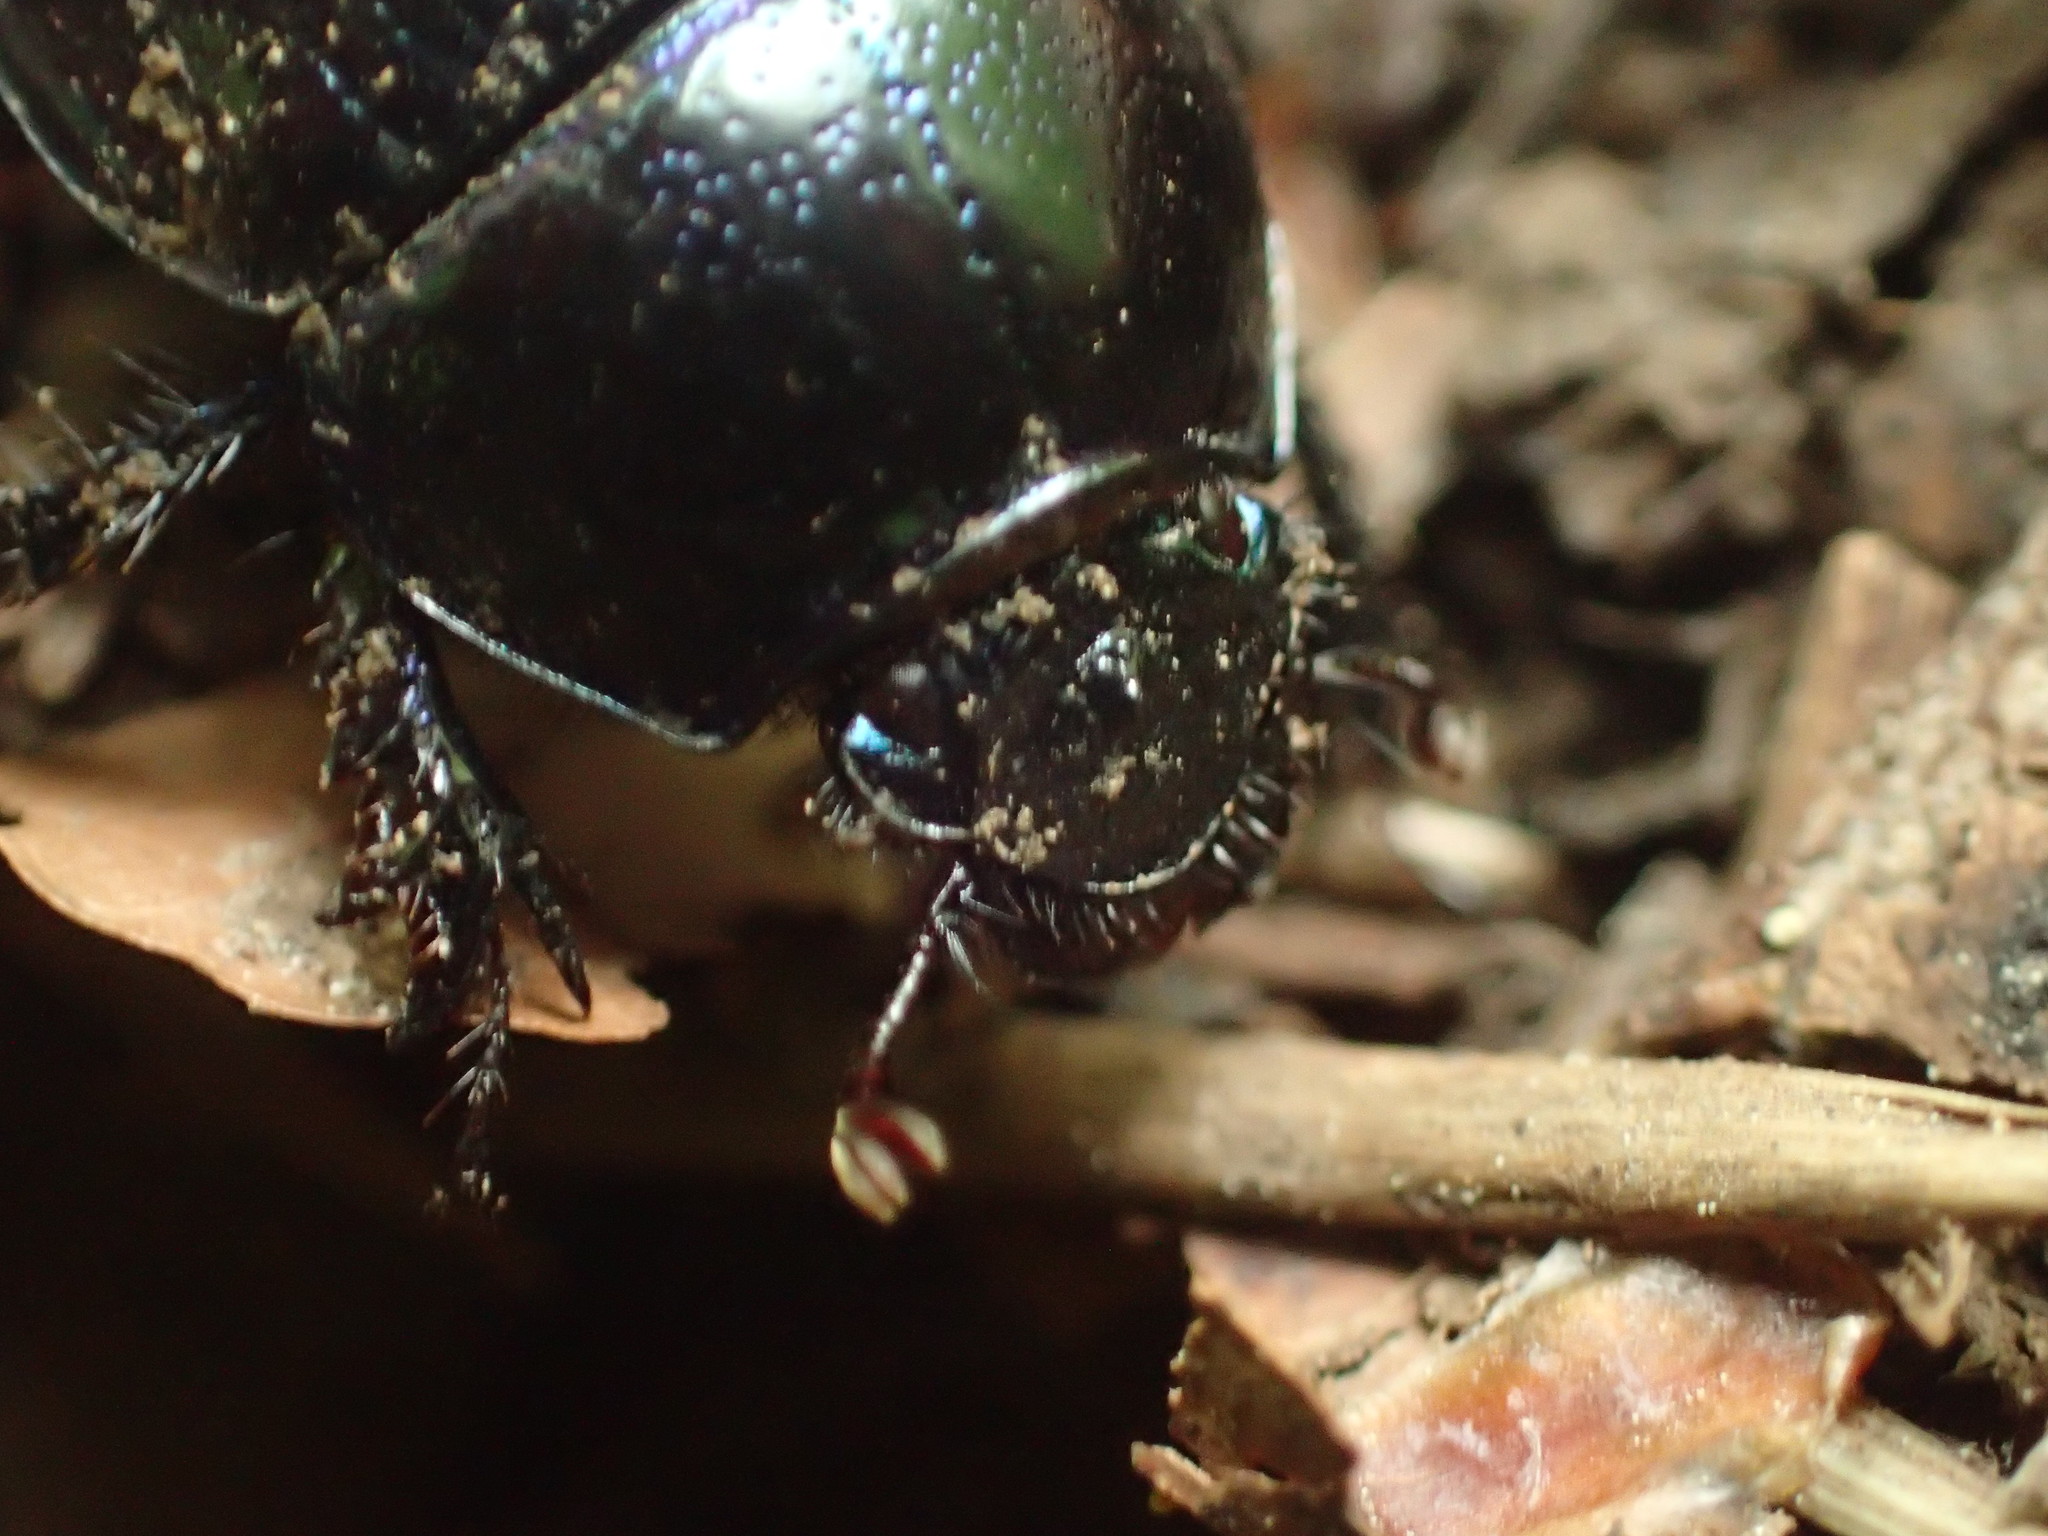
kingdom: Animalia
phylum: Arthropoda
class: Insecta
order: Coleoptera
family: Geotrupidae
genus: Anoplotrupes
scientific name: Anoplotrupes stercorosus
